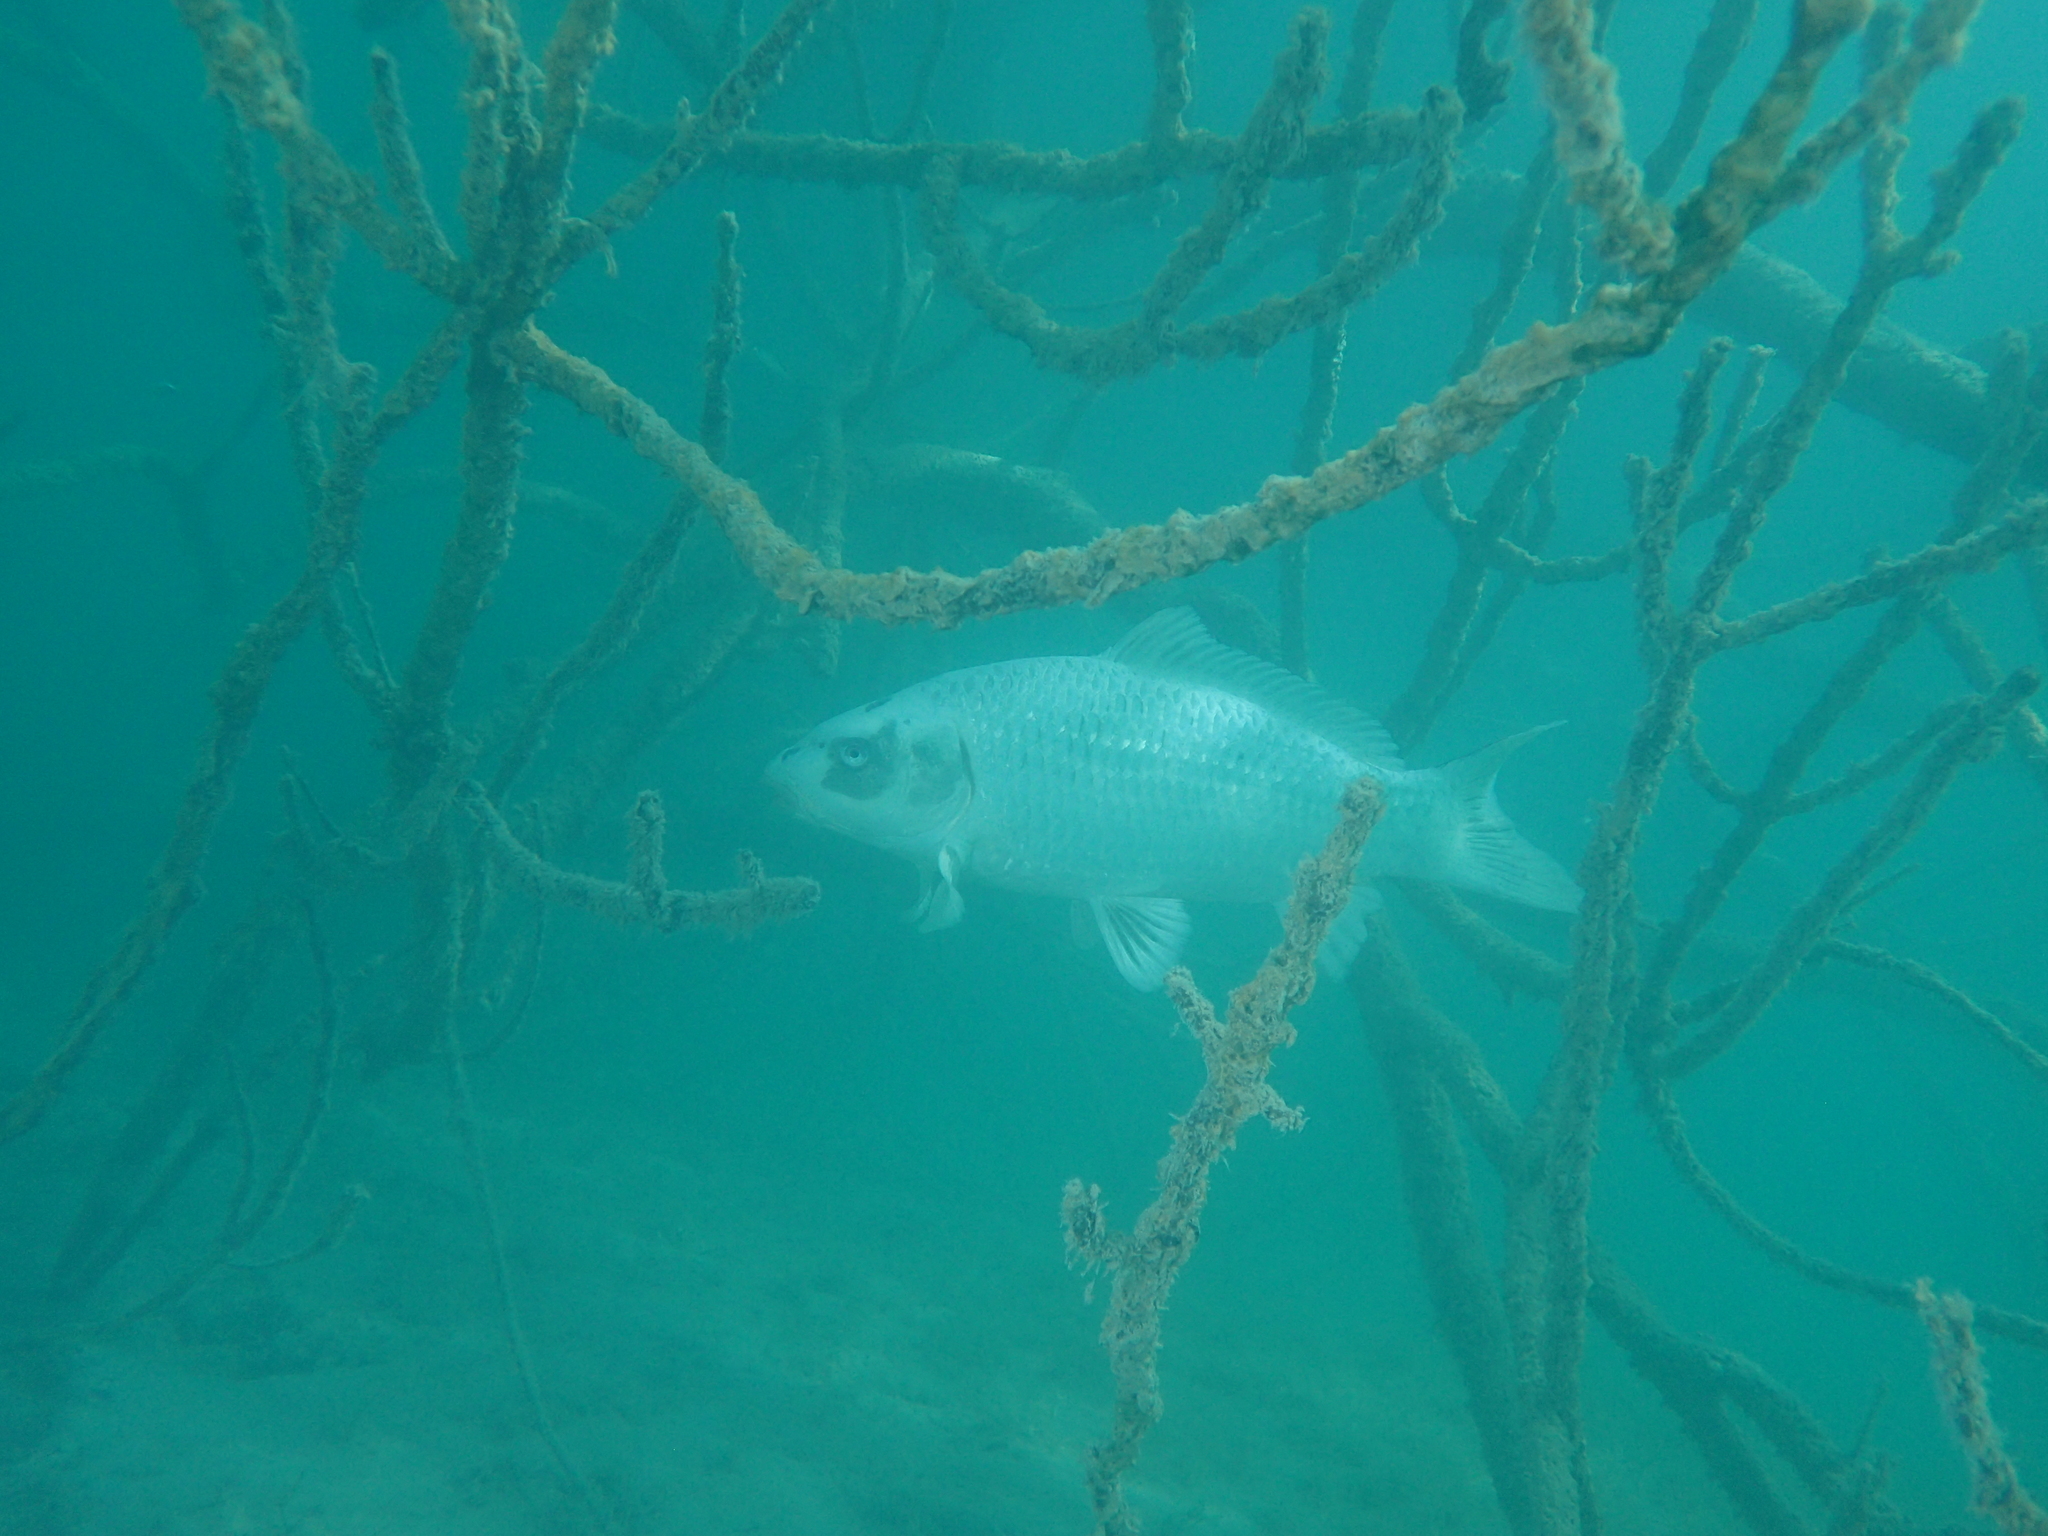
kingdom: Animalia
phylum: Chordata
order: Cypriniformes
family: Cyprinidae
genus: Cyprinus
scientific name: Cyprinus carpio
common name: Common carp
